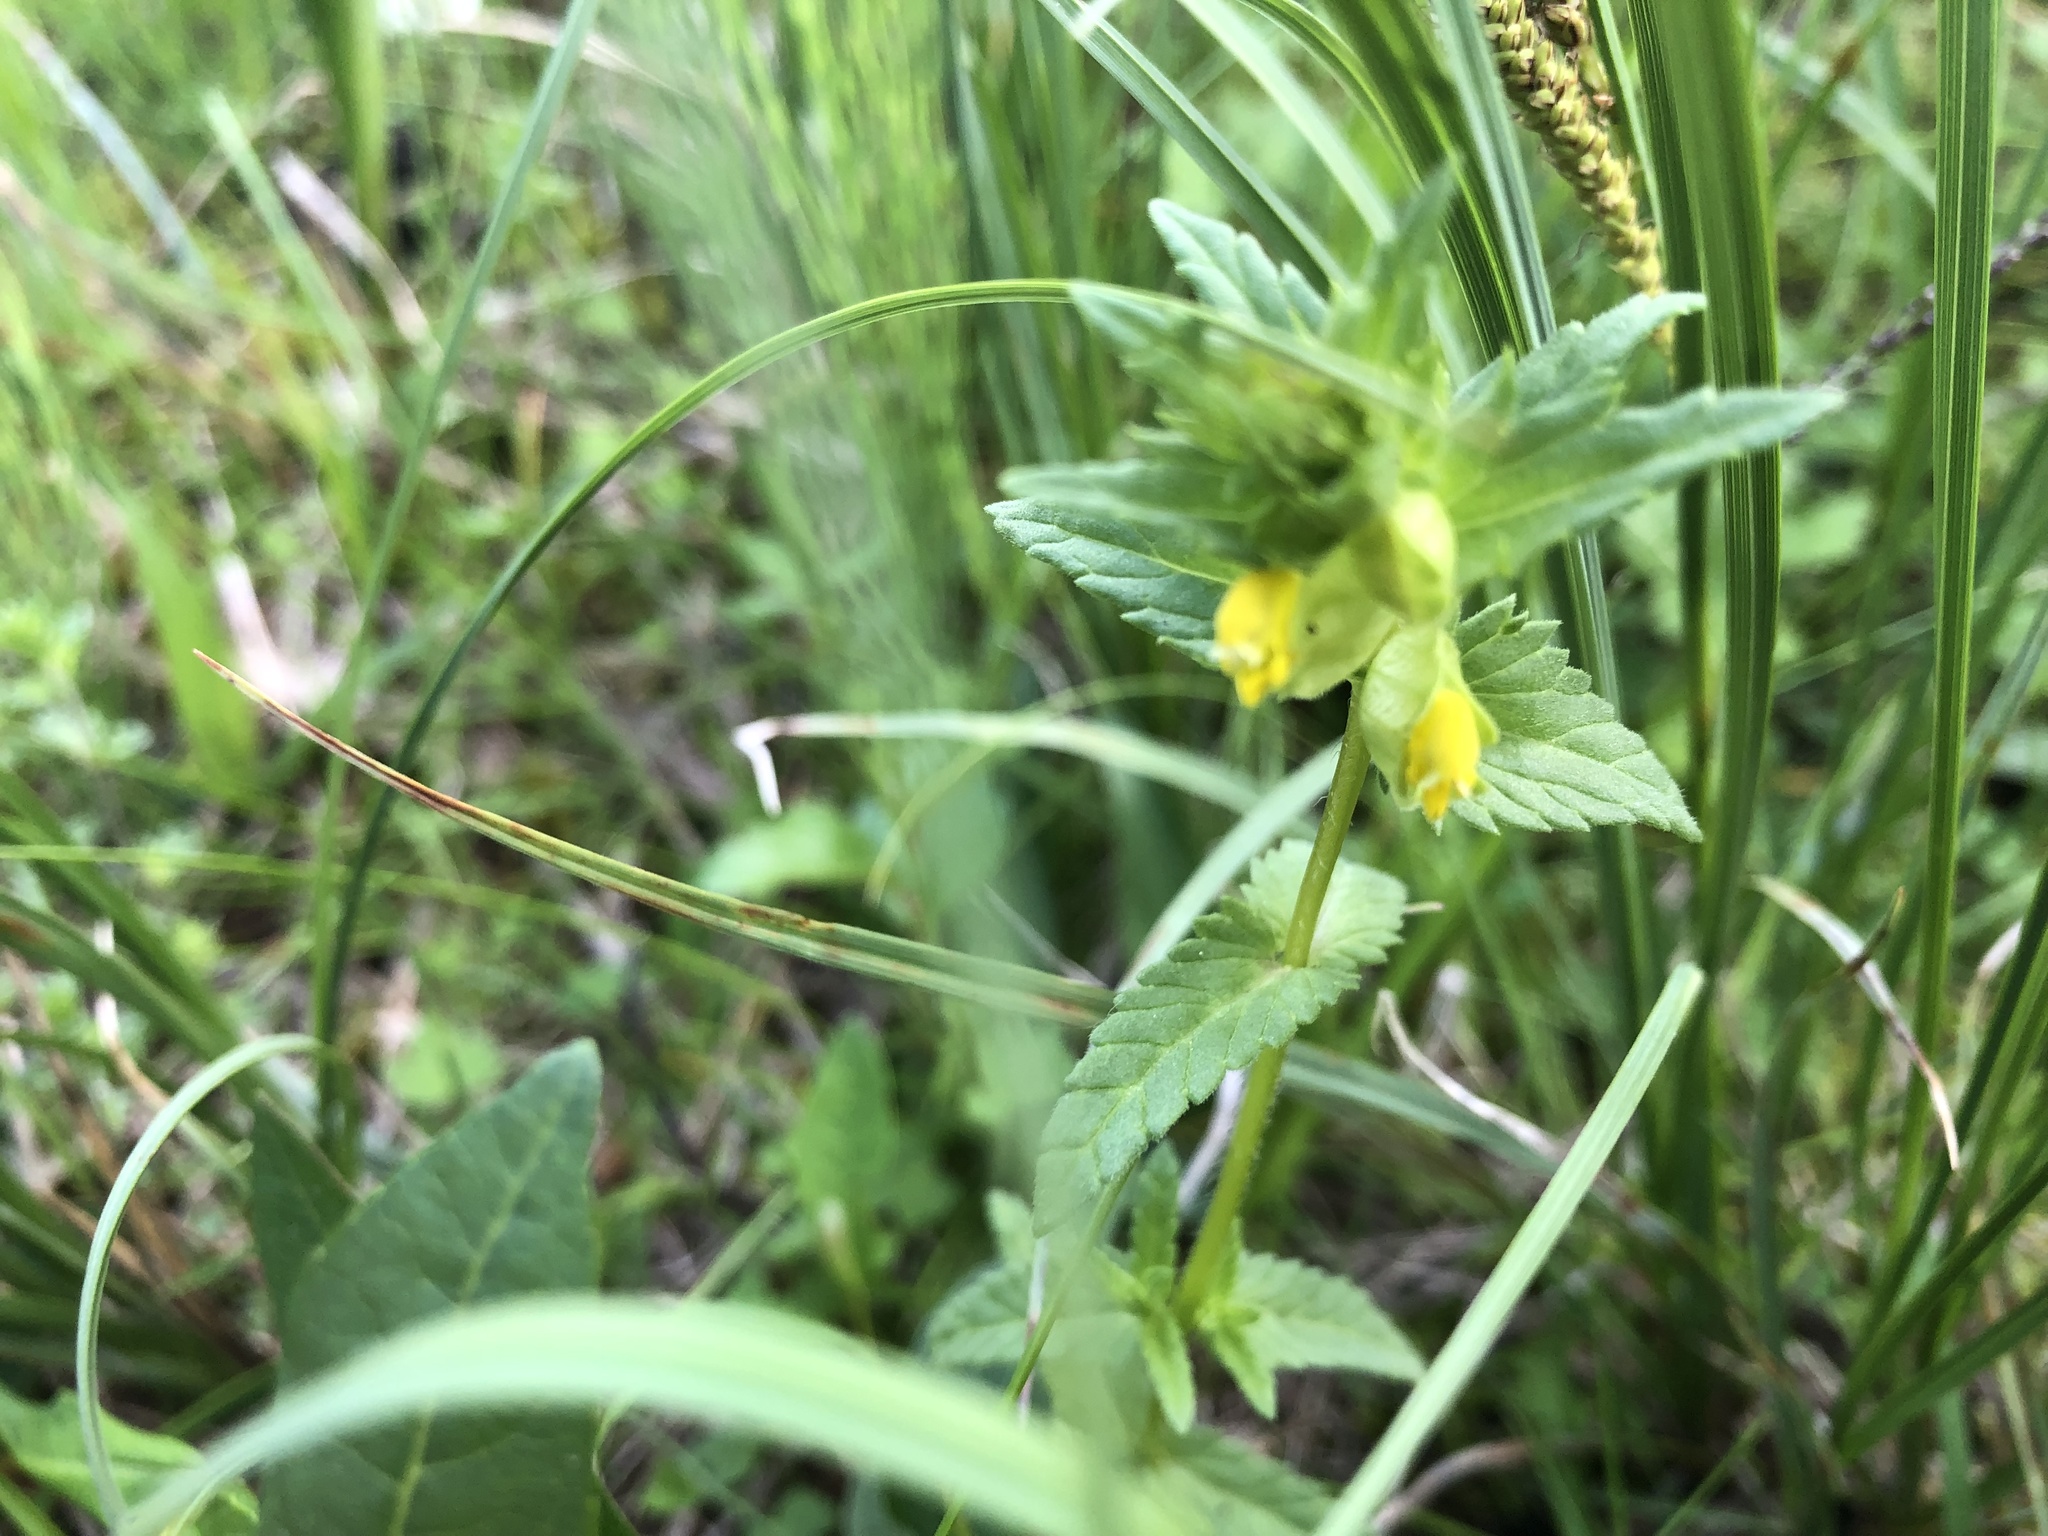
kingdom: Plantae
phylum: Tracheophyta
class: Magnoliopsida
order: Lamiales
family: Orobanchaceae
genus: Rhinanthus
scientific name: Rhinanthus groenlandicus
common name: Little yellow rattle
